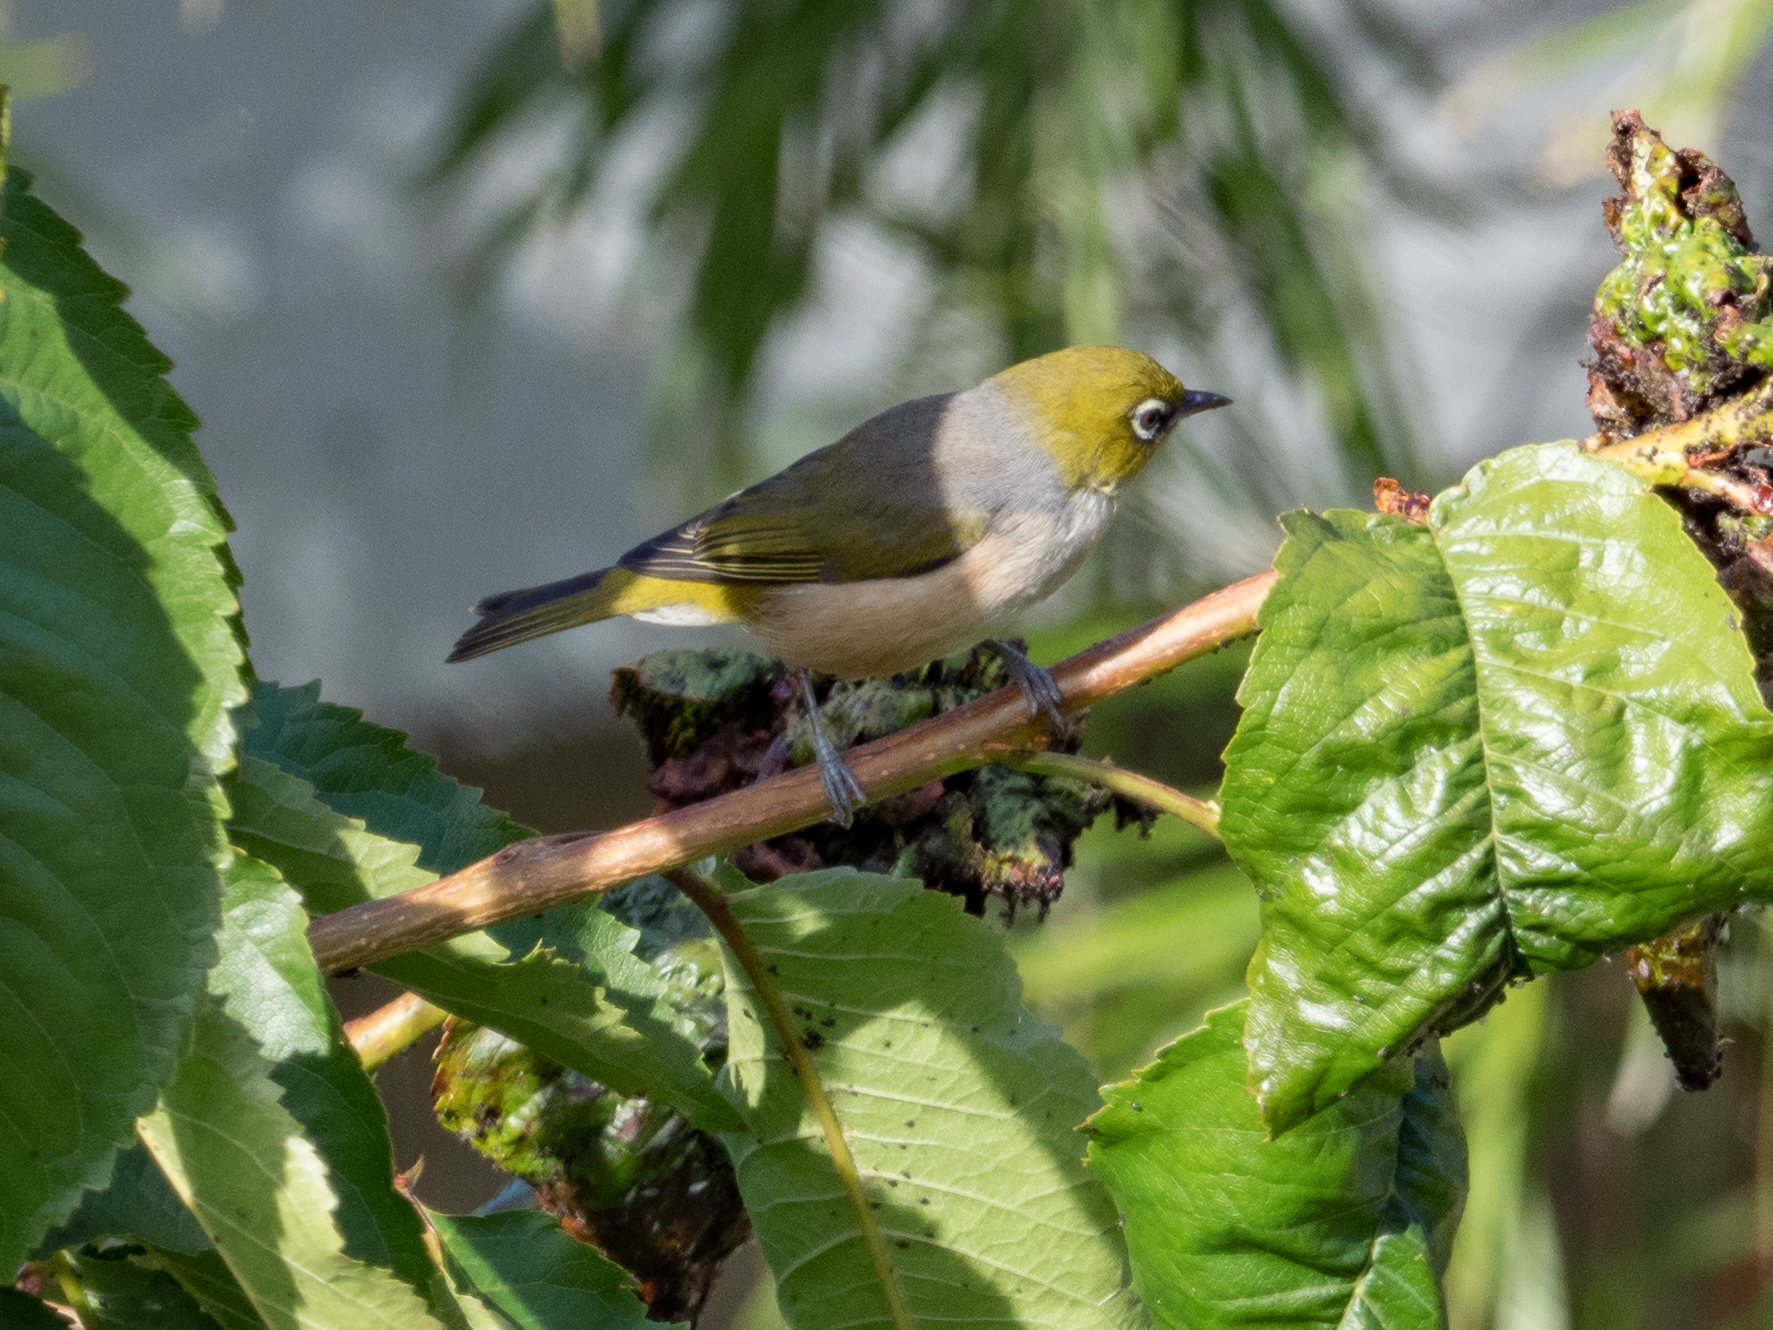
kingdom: Animalia
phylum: Chordata
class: Aves
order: Passeriformes
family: Zosteropidae
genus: Zosterops
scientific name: Zosterops lateralis
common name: Silvereye
